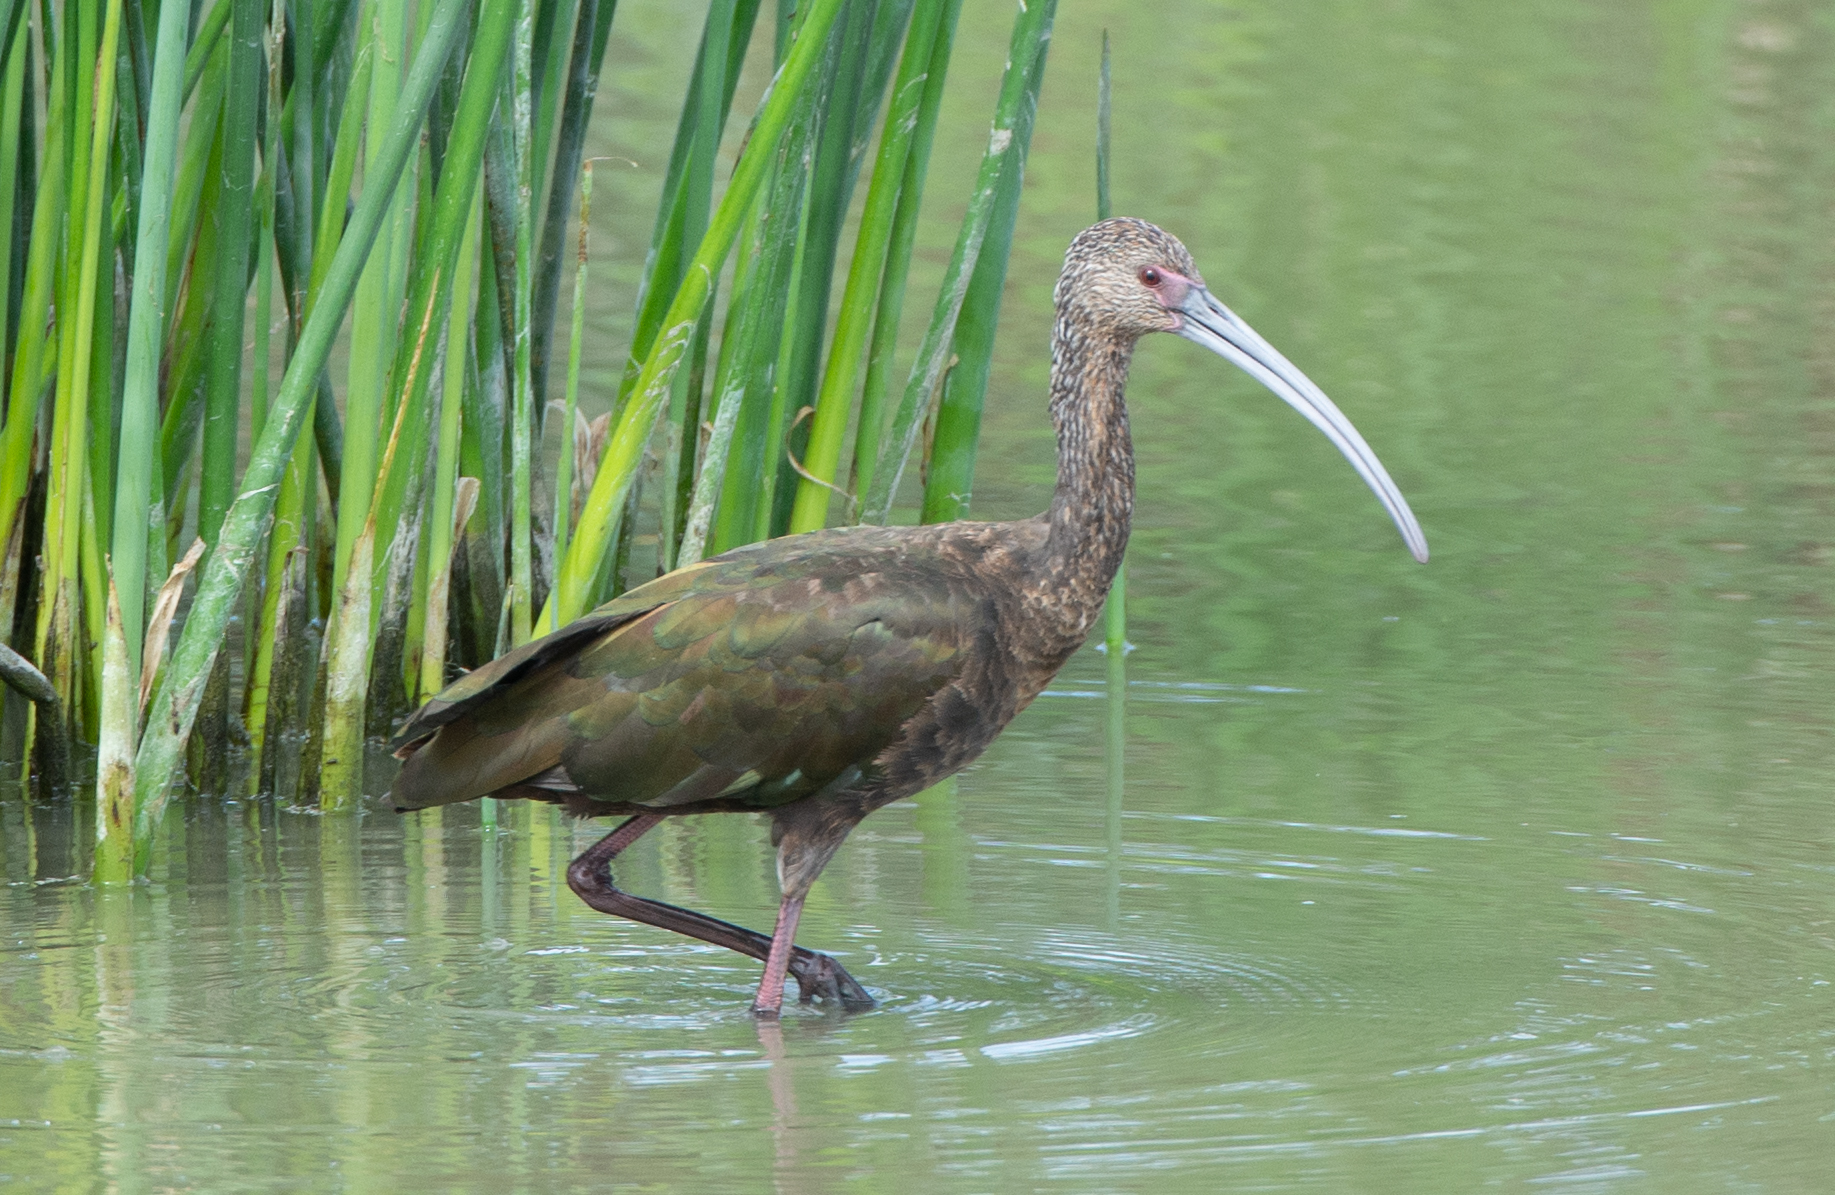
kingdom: Animalia
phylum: Chordata
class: Aves
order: Pelecaniformes
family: Threskiornithidae
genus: Plegadis
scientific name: Plegadis chihi
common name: White-faced ibis
